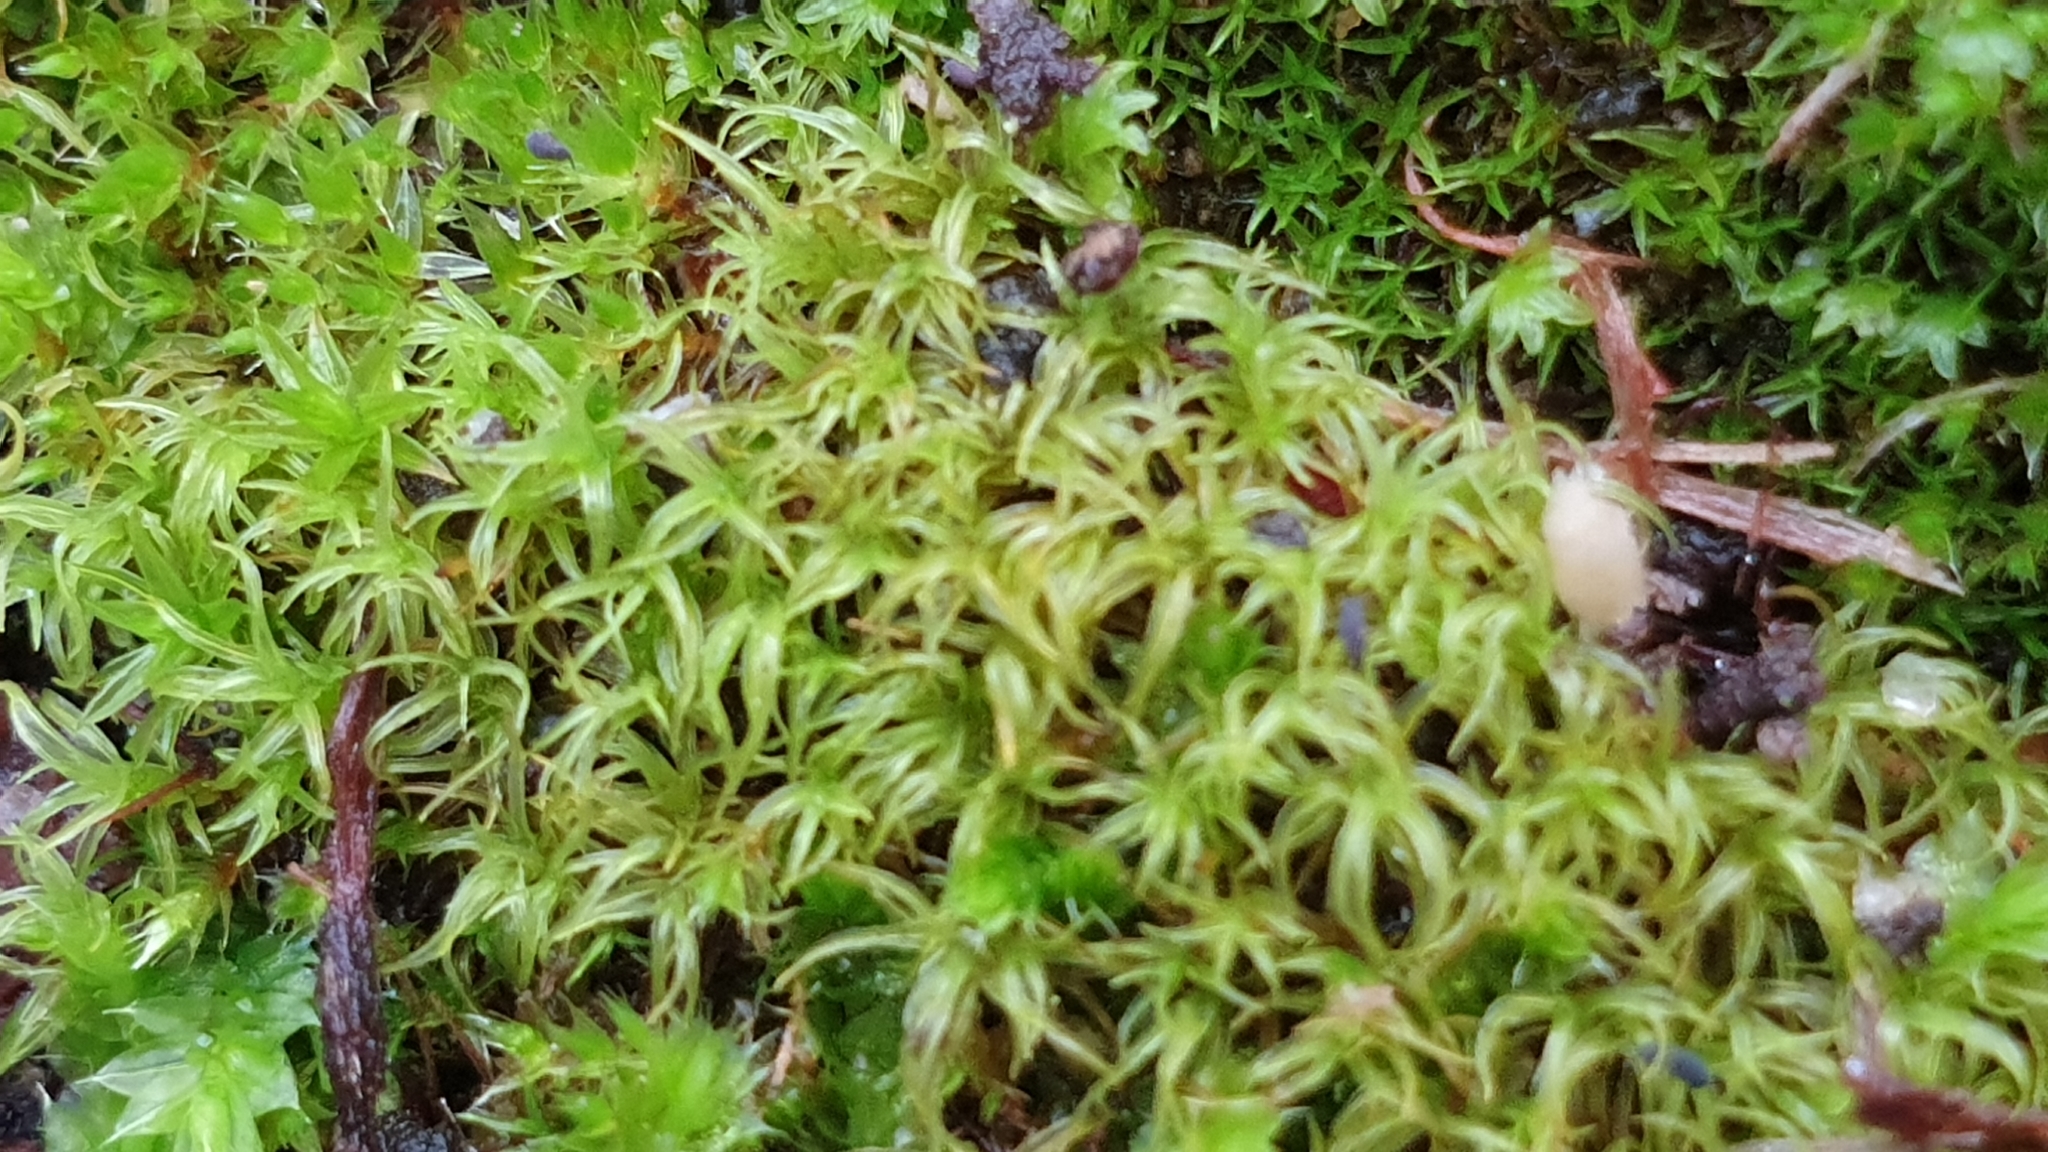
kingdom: Plantae
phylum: Bryophyta
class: Bryopsida
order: Pottiales
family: Pottiaceae
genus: Triquetrella
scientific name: Triquetrella paradoxa
